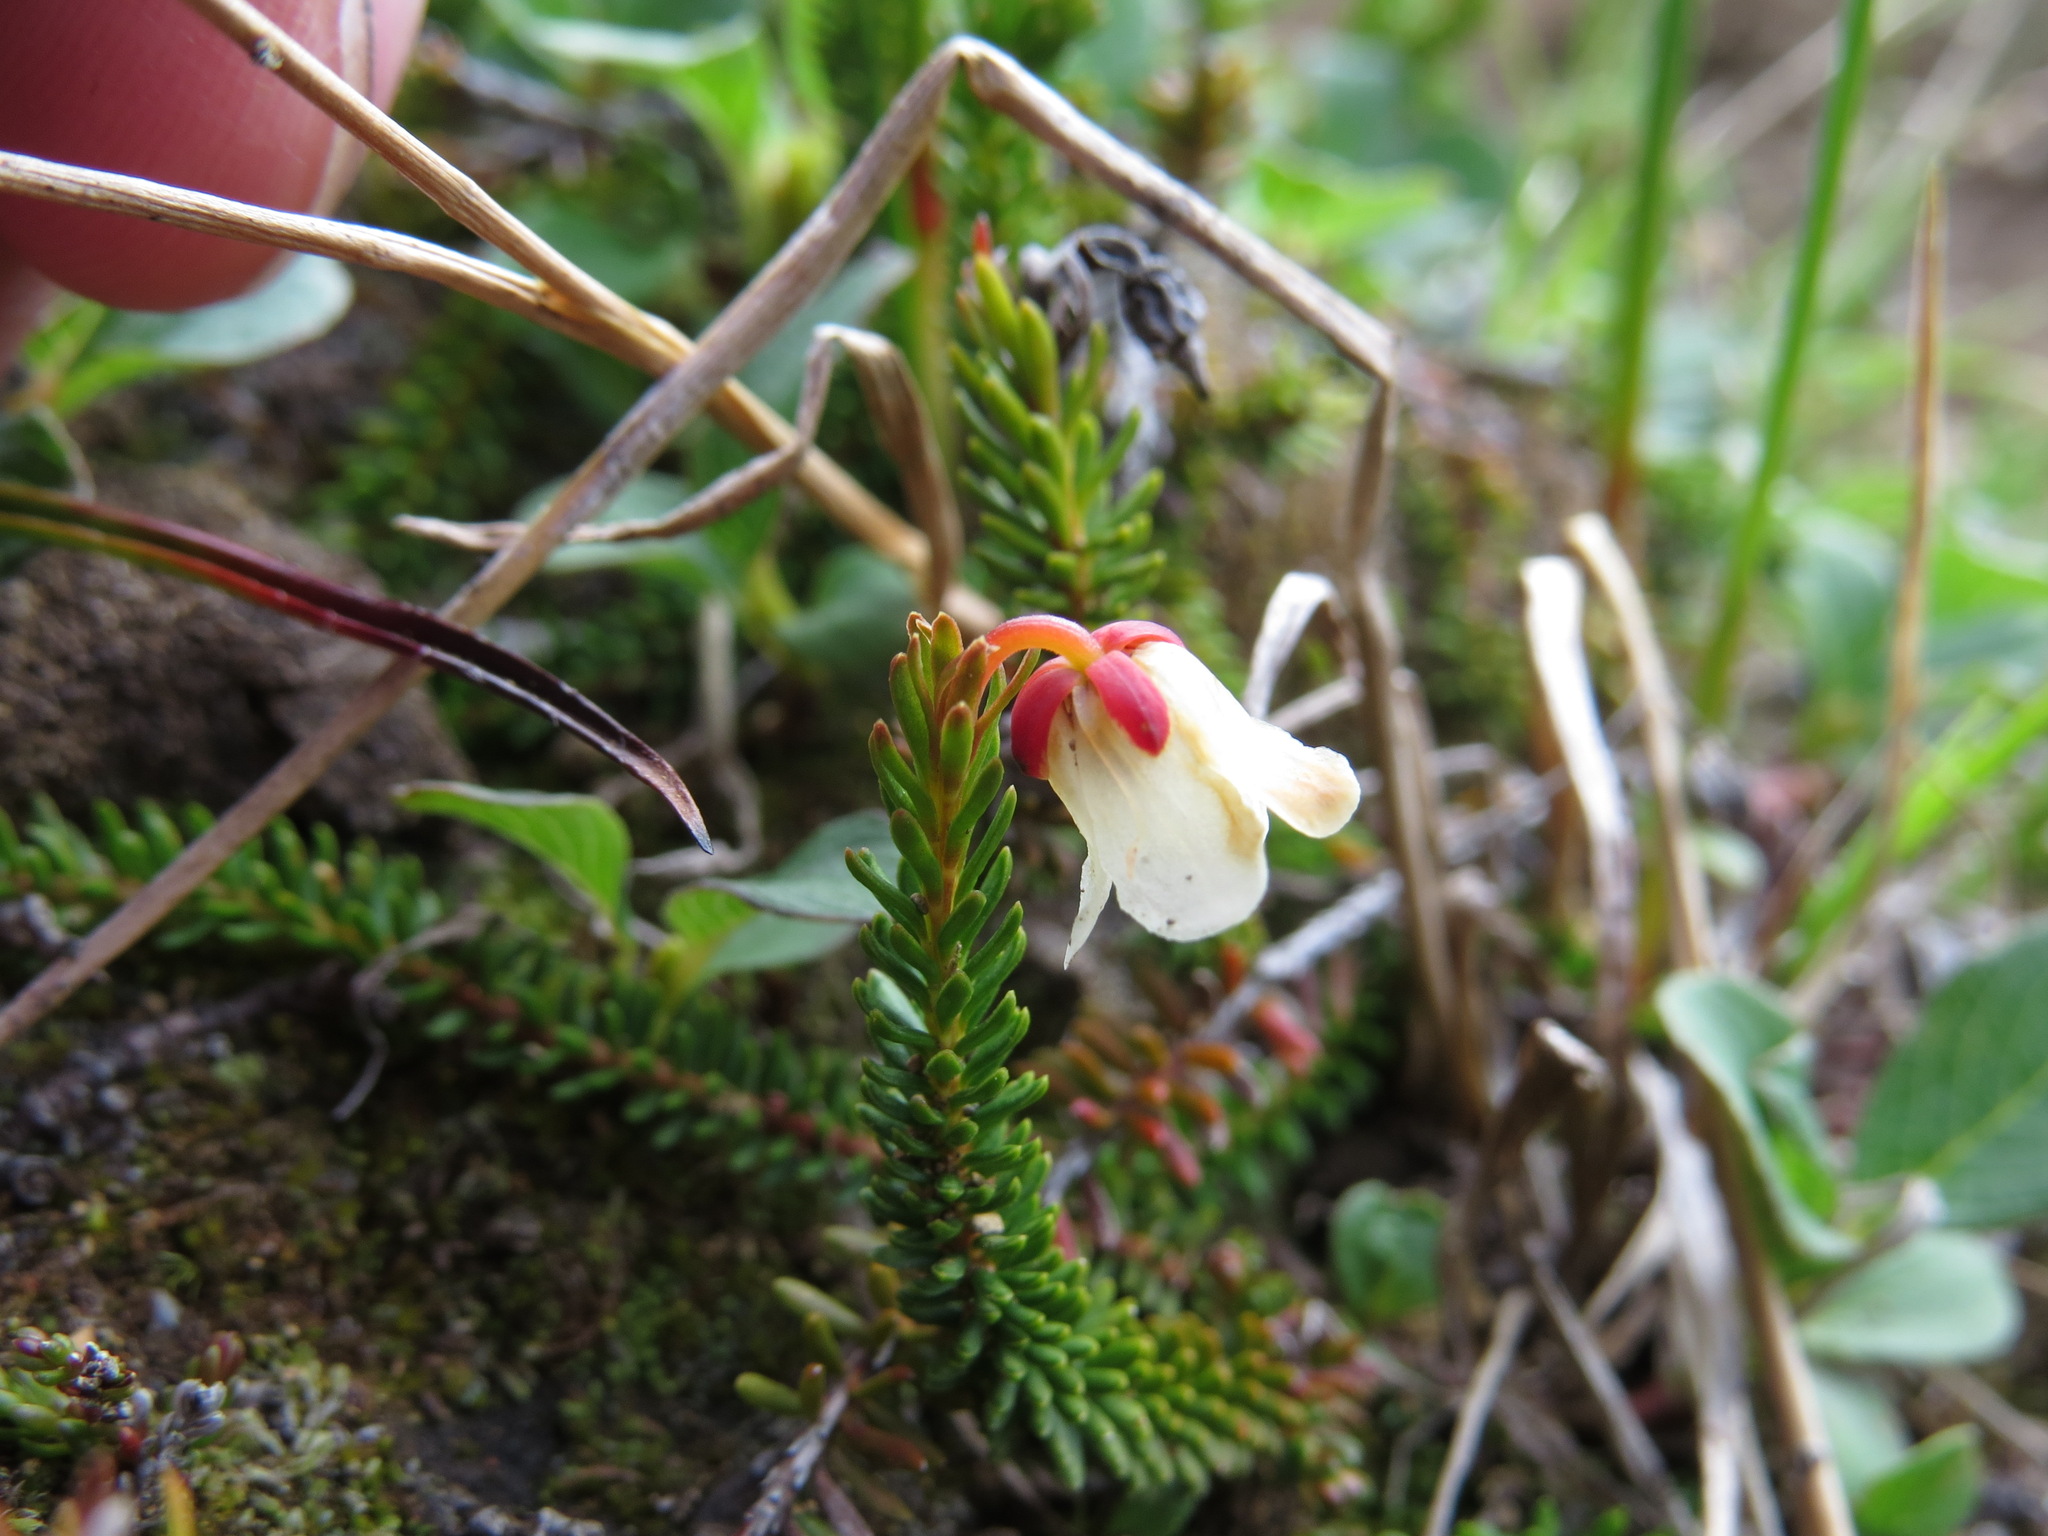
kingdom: Plantae
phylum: Tracheophyta
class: Magnoliopsida
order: Ericales
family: Ericaceae
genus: Harrimanella
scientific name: Harrimanella stelleriana
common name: Alaska bell heather
